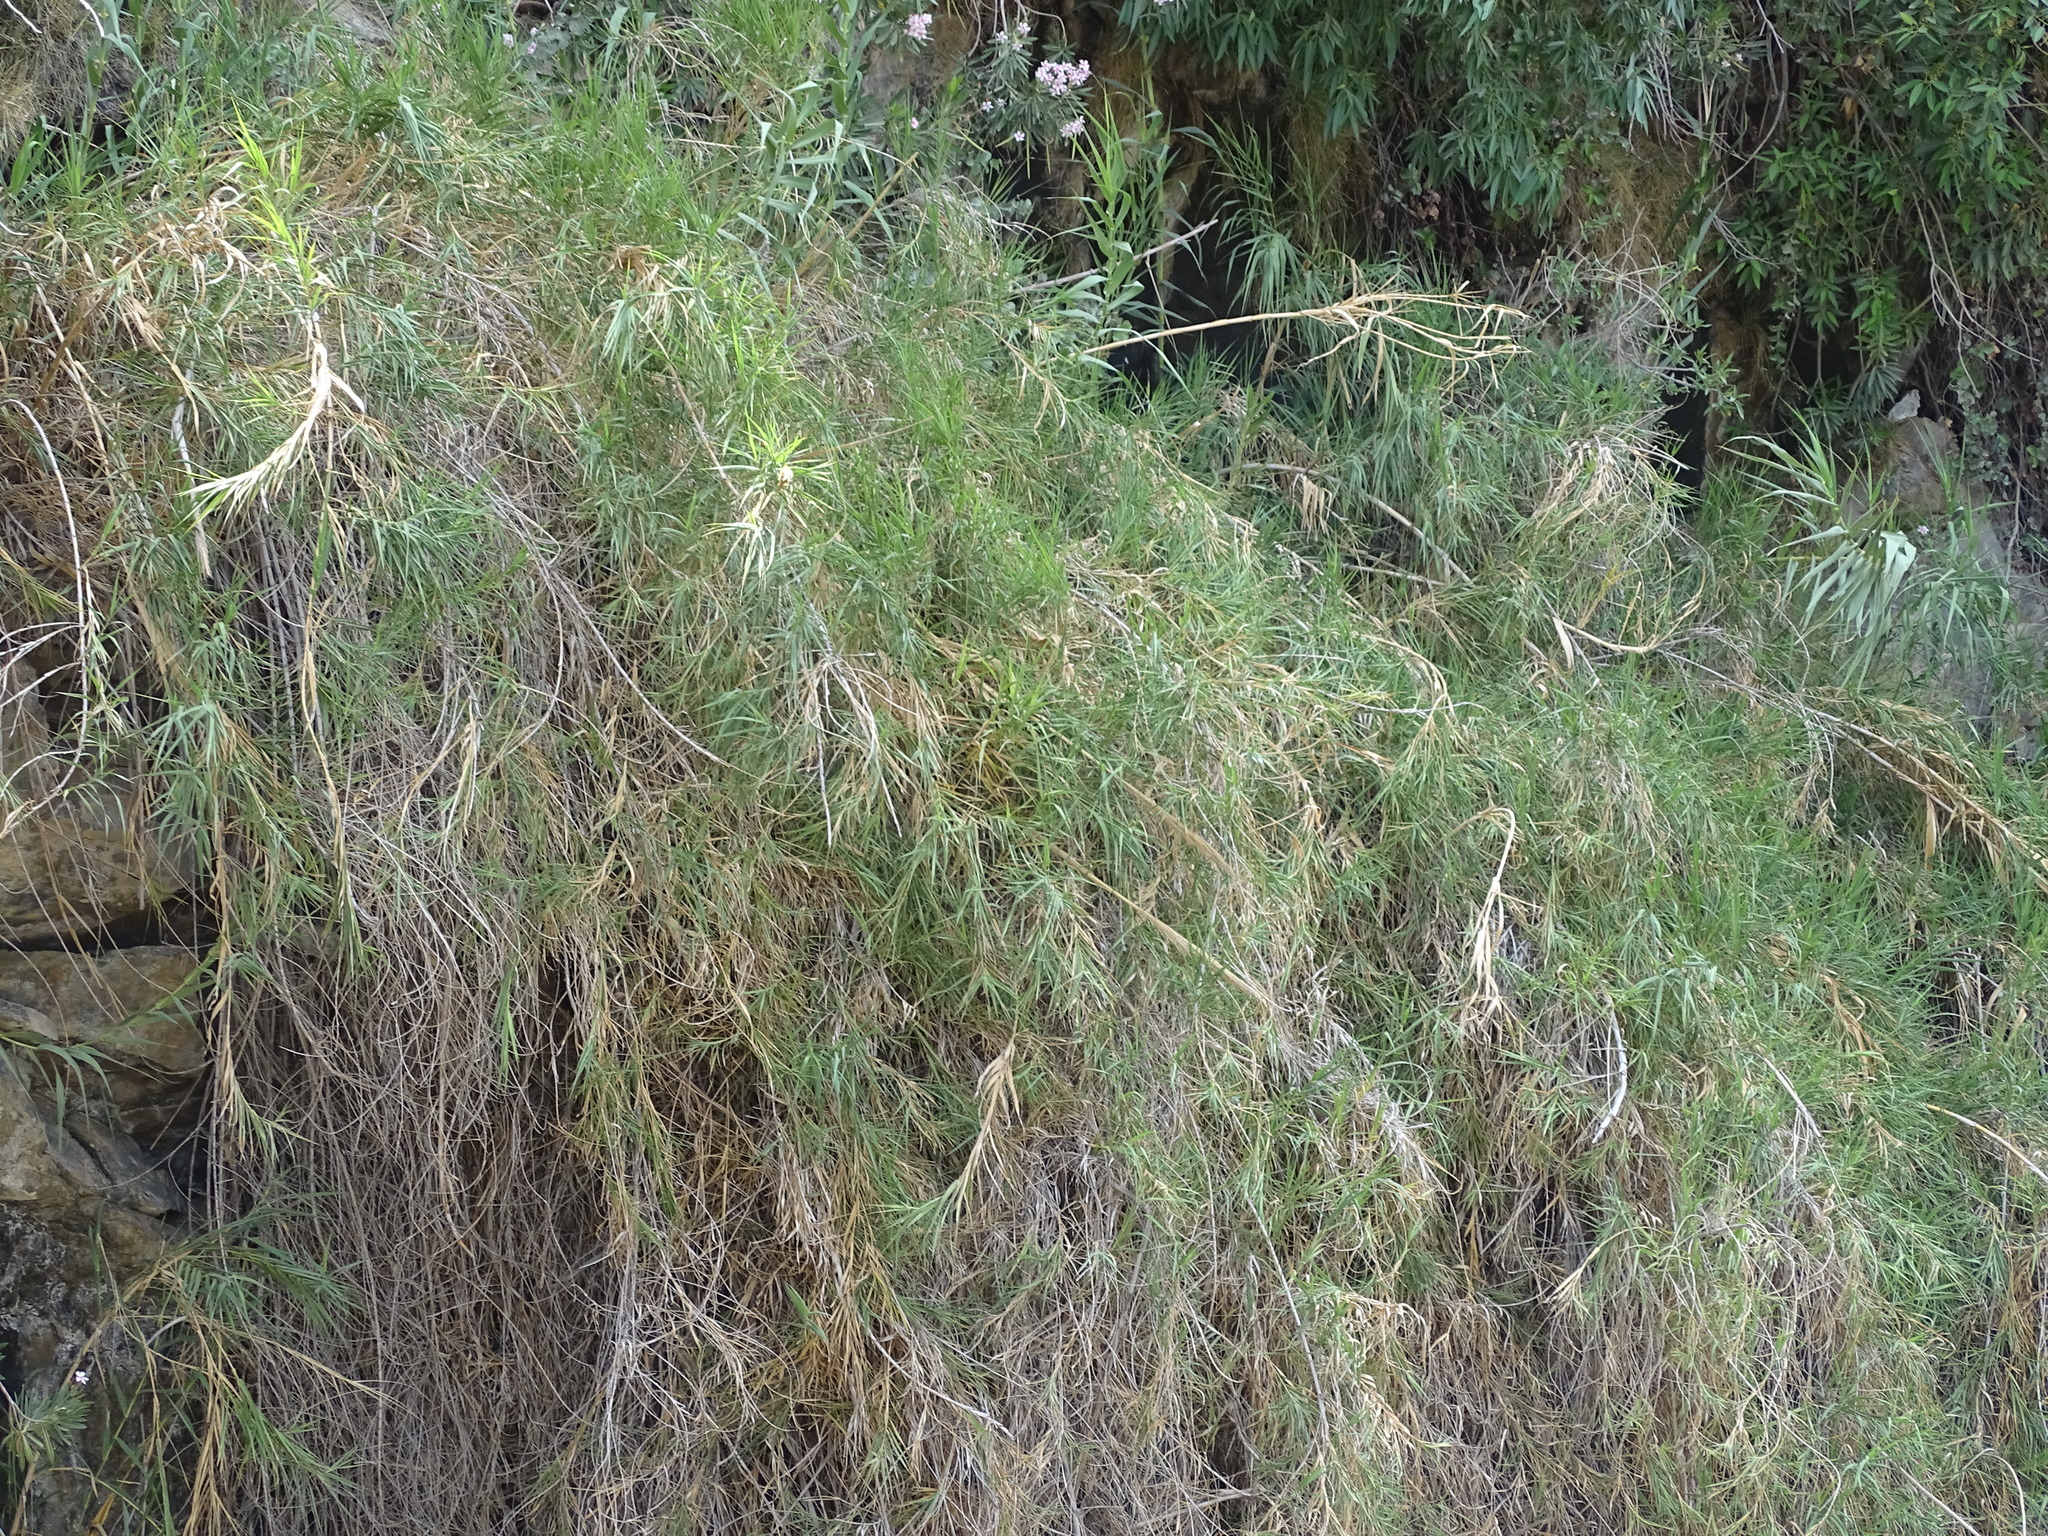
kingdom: Plantae
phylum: Tracheophyta
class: Liliopsida
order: Poales
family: Poaceae
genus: Arundo
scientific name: Arundo donax
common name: Giant reed
